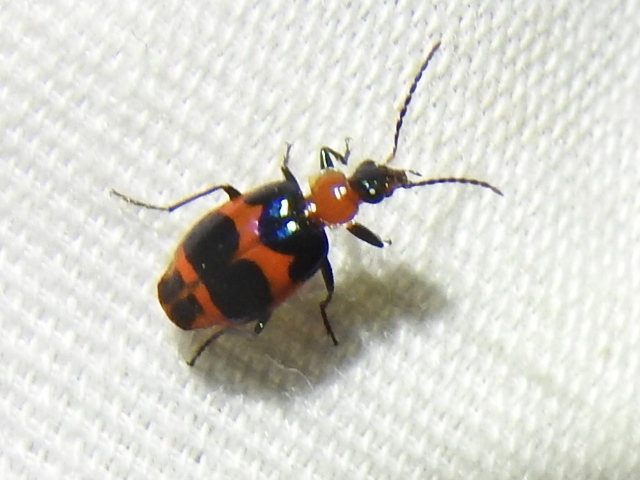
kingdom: Animalia
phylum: Arthropoda
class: Insecta
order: Coleoptera
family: Carabidae
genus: Lebia
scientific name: Lebia bitaeniata
